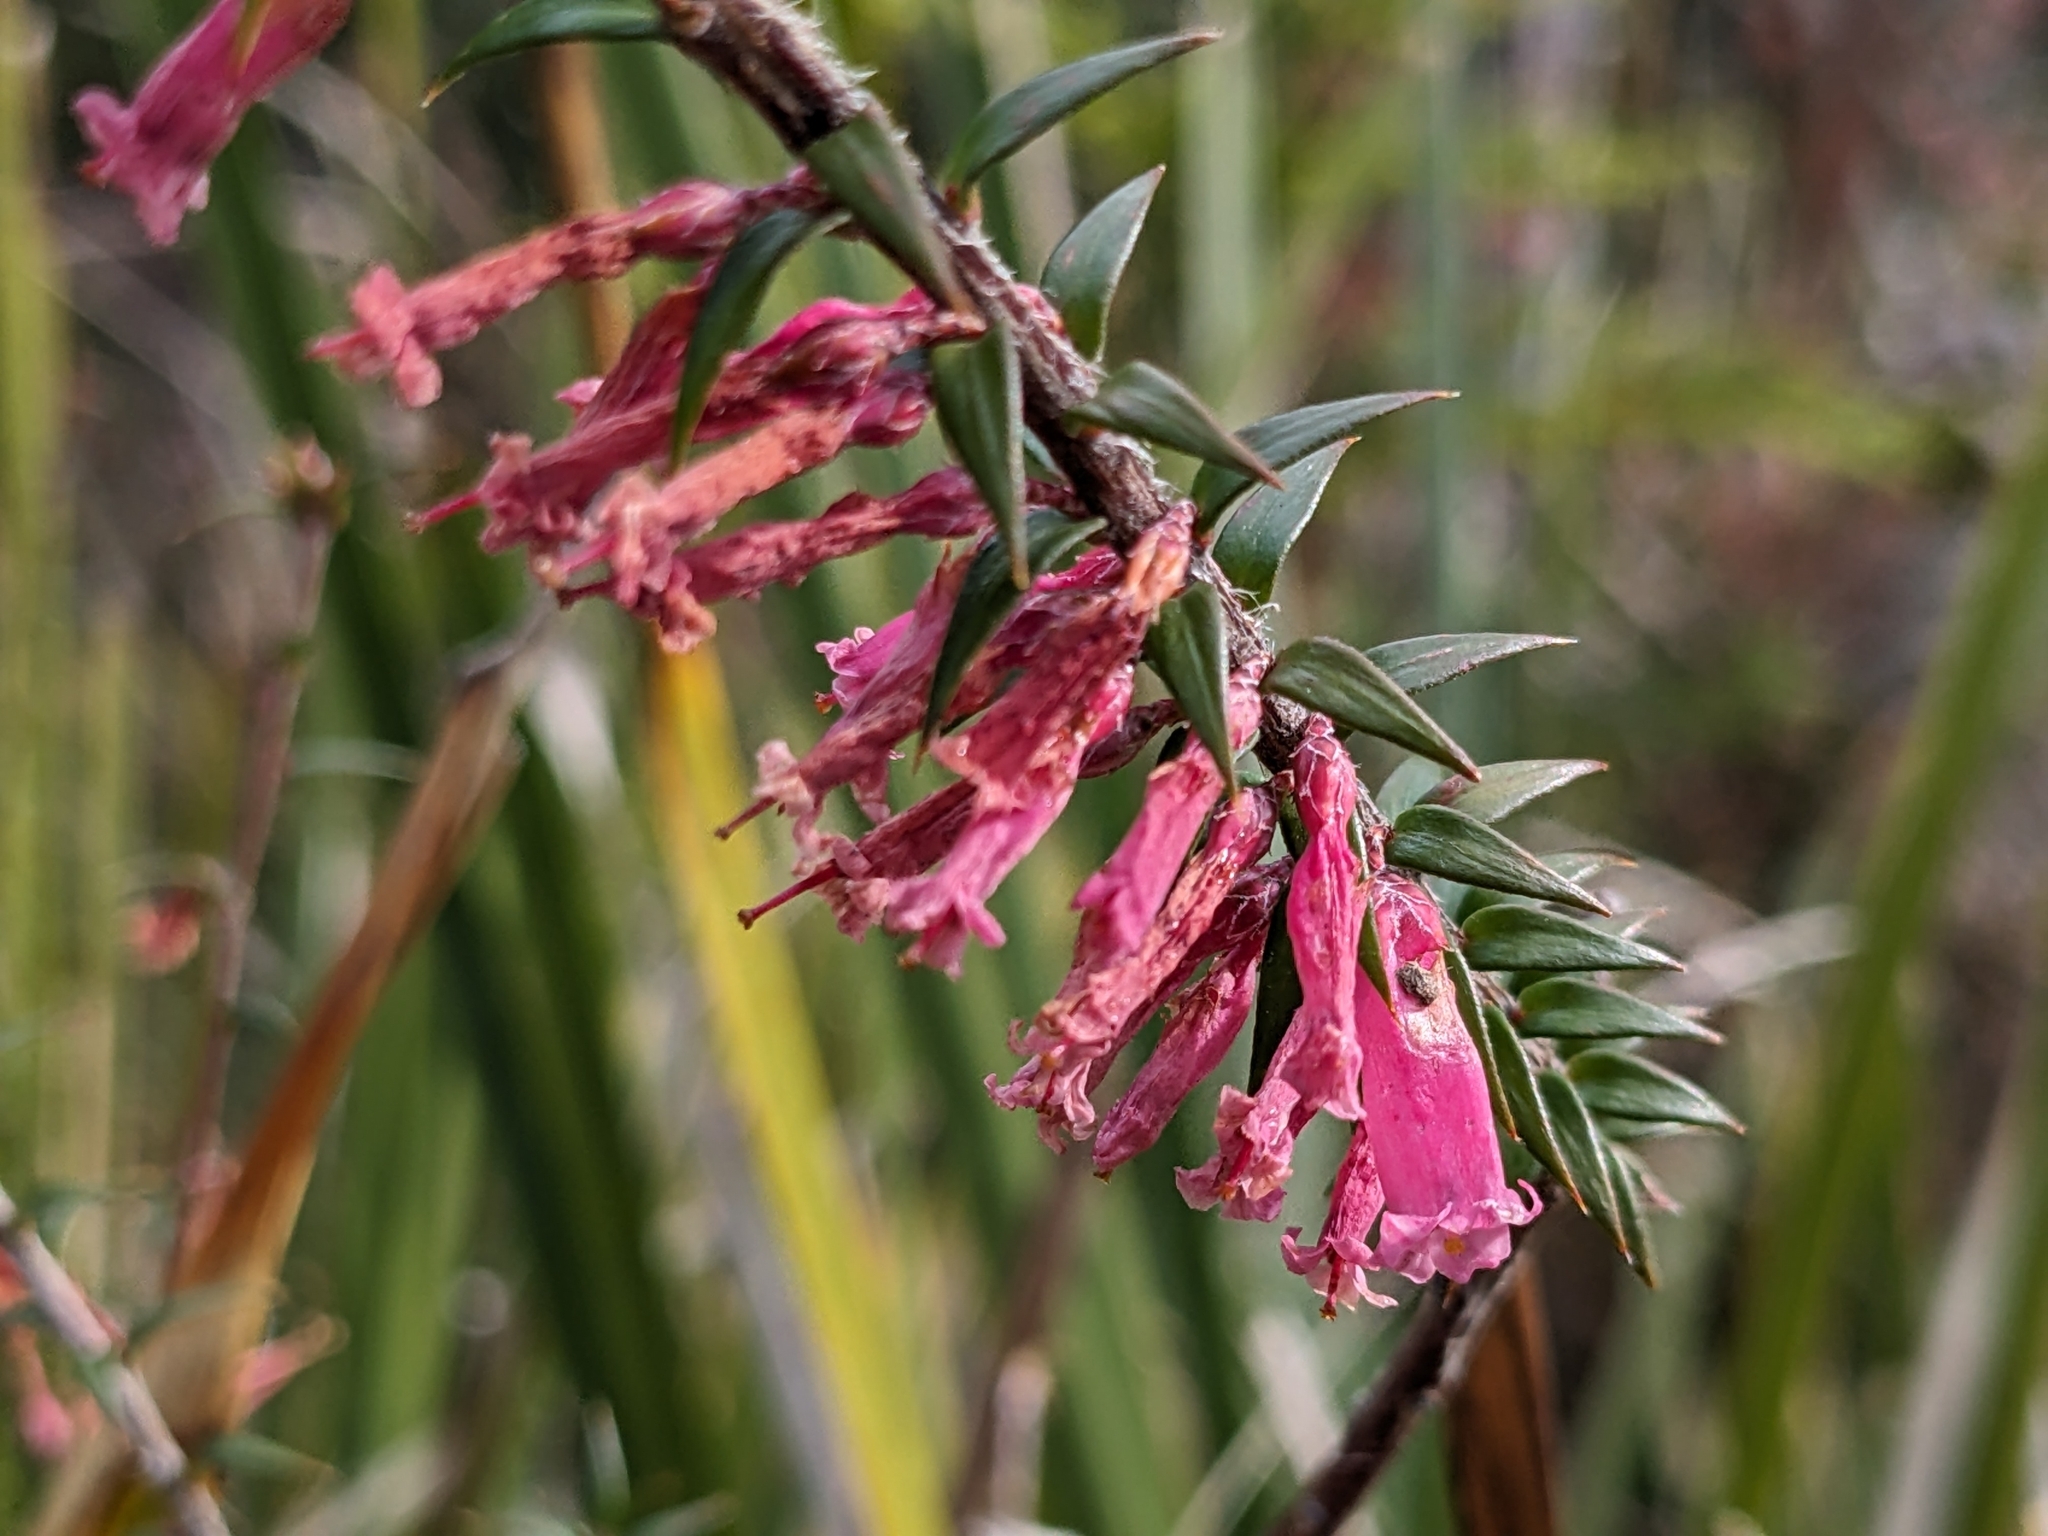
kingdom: Plantae
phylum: Tracheophyta
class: Magnoliopsida
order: Ericales
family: Ericaceae
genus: Epacris
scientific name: Epacris impressa
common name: Common-heath
